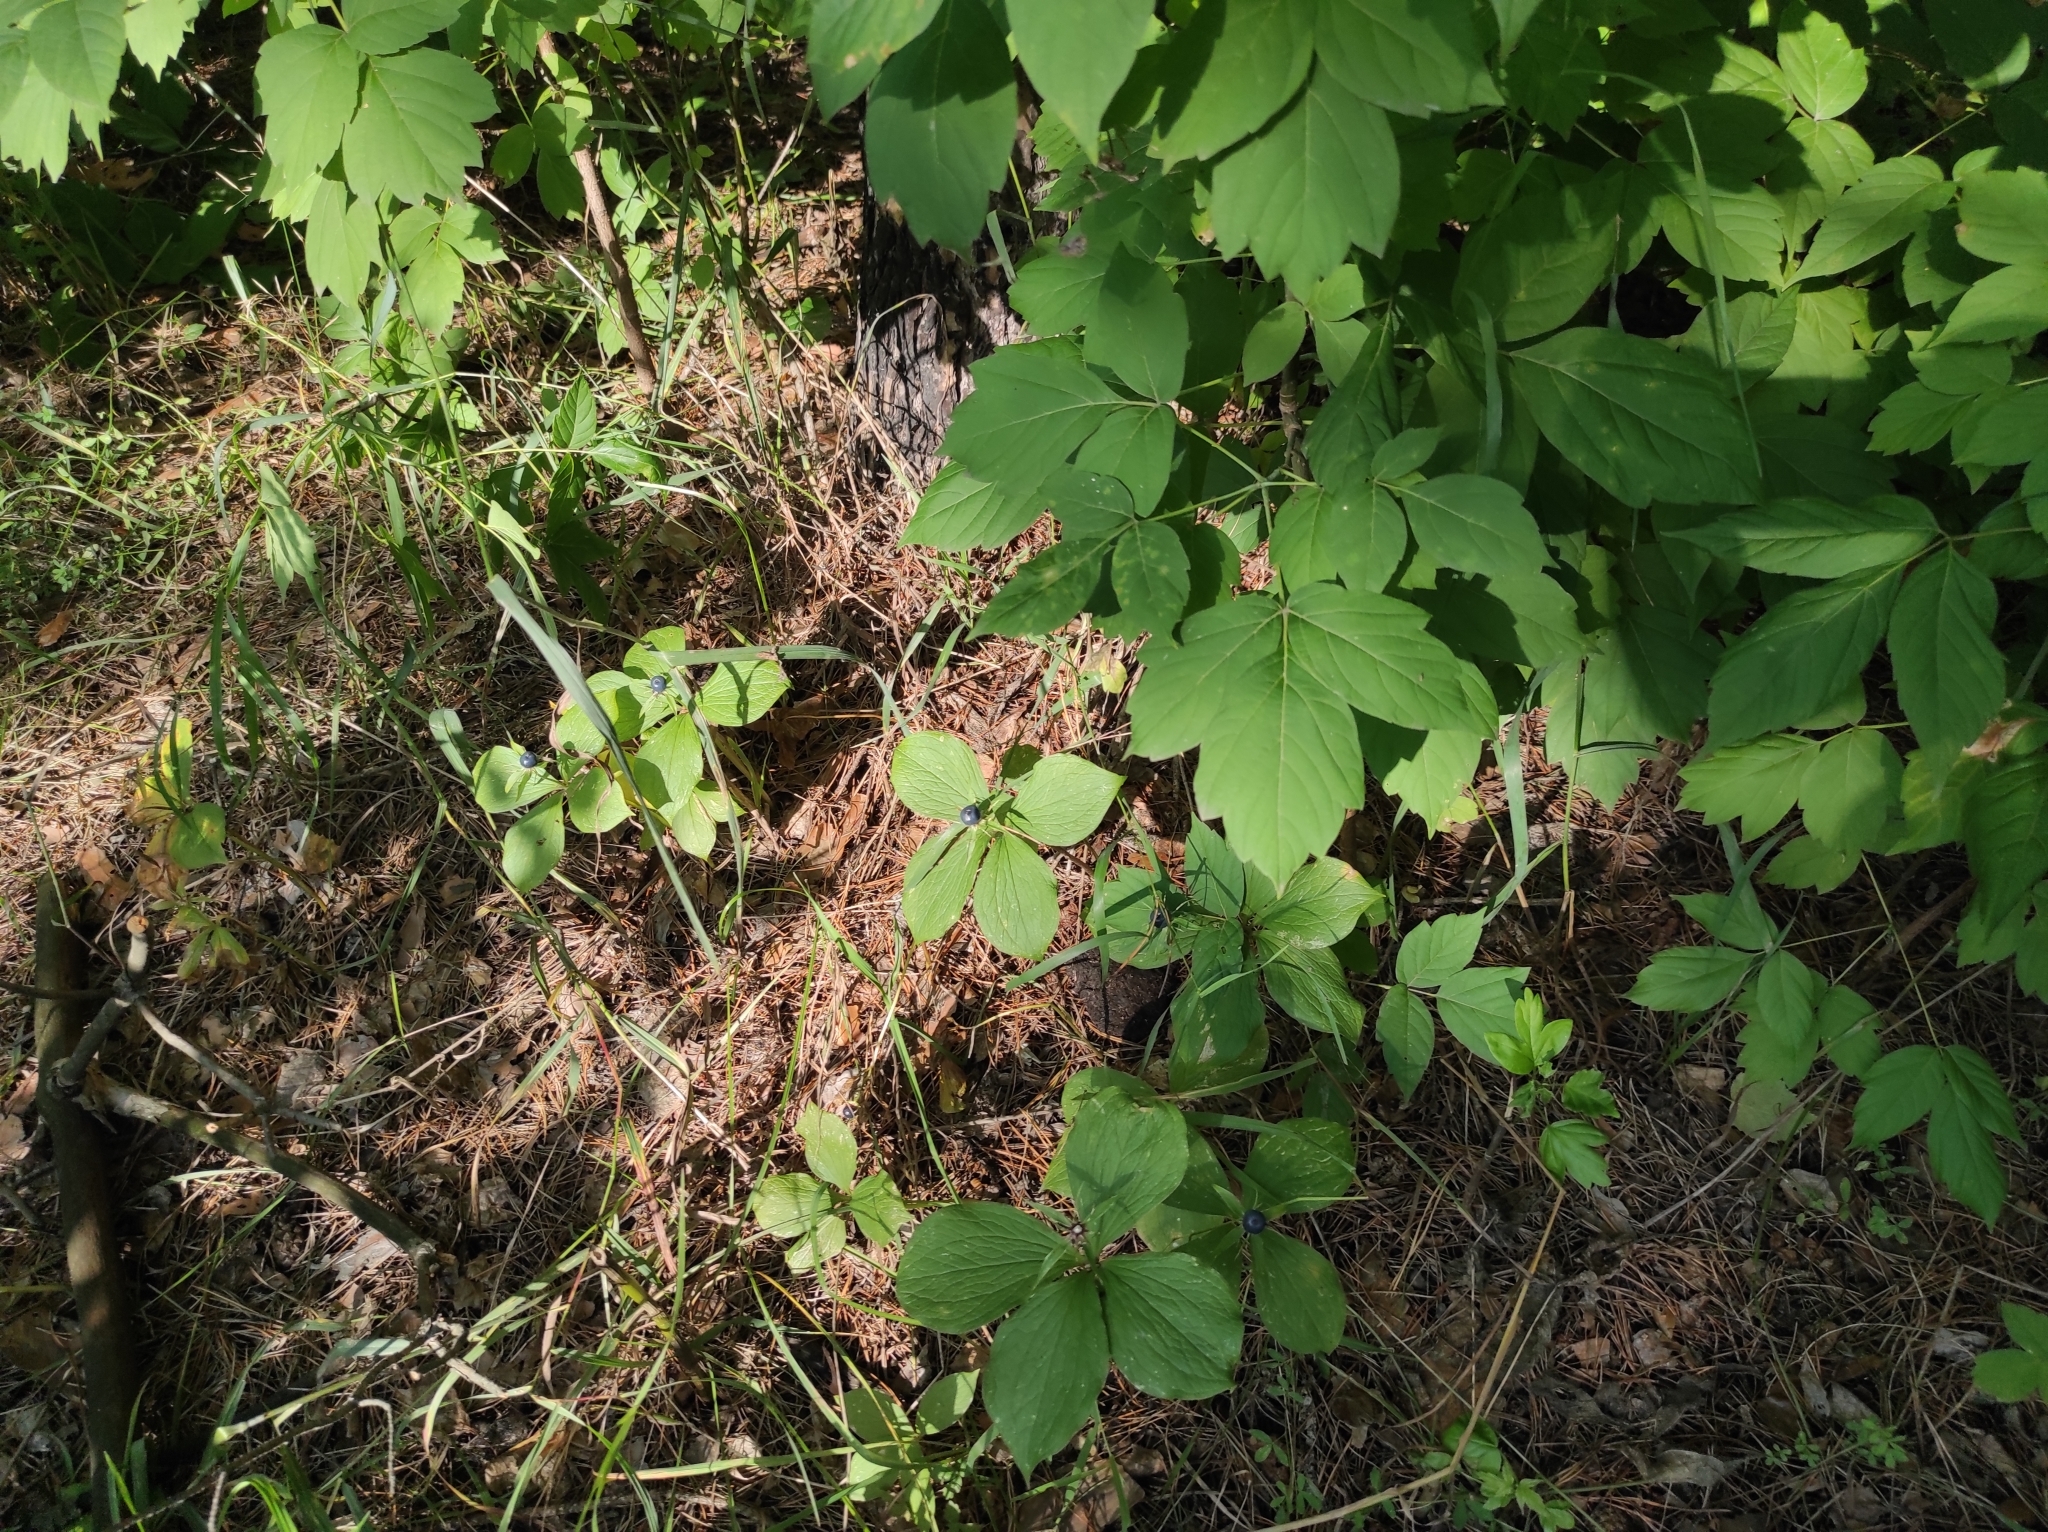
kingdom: Plantae
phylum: Tracheophyta
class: Liliopsida
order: Liliales
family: Melanthiaceae
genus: Paris
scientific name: Paris quadrifolia
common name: Herb-paris
